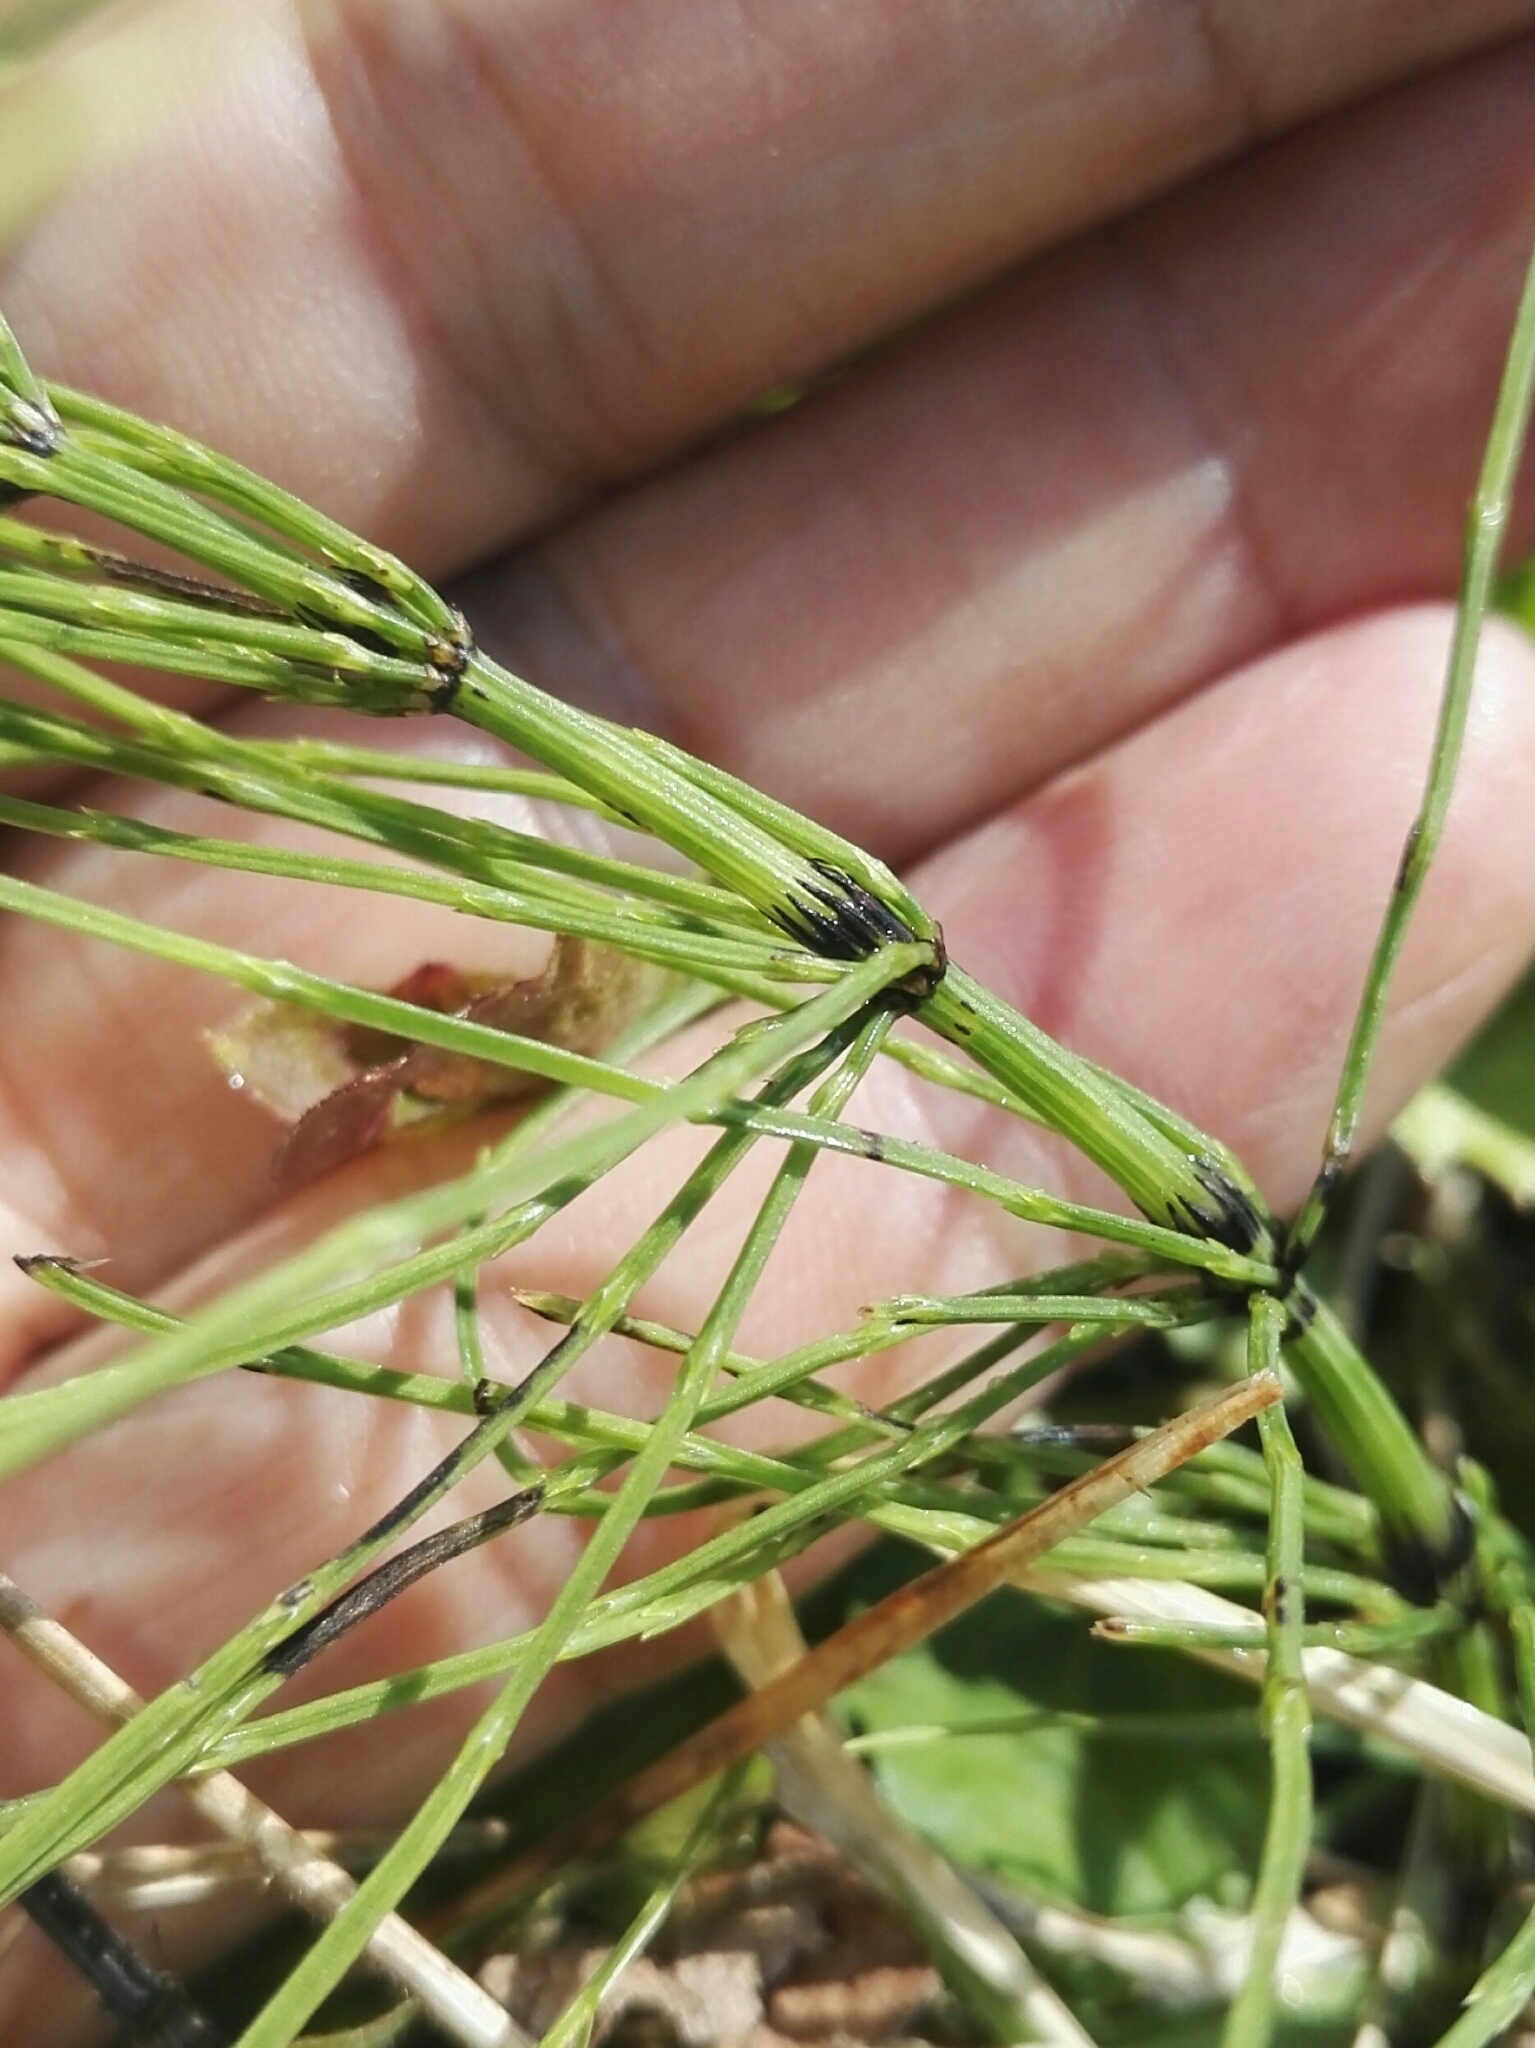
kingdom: Plantae
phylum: Tracheophyta
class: Polypodiopsida
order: Equisetales
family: Equisetaceae
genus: Equisetum
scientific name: Equisetum arvense
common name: Field horsetail
